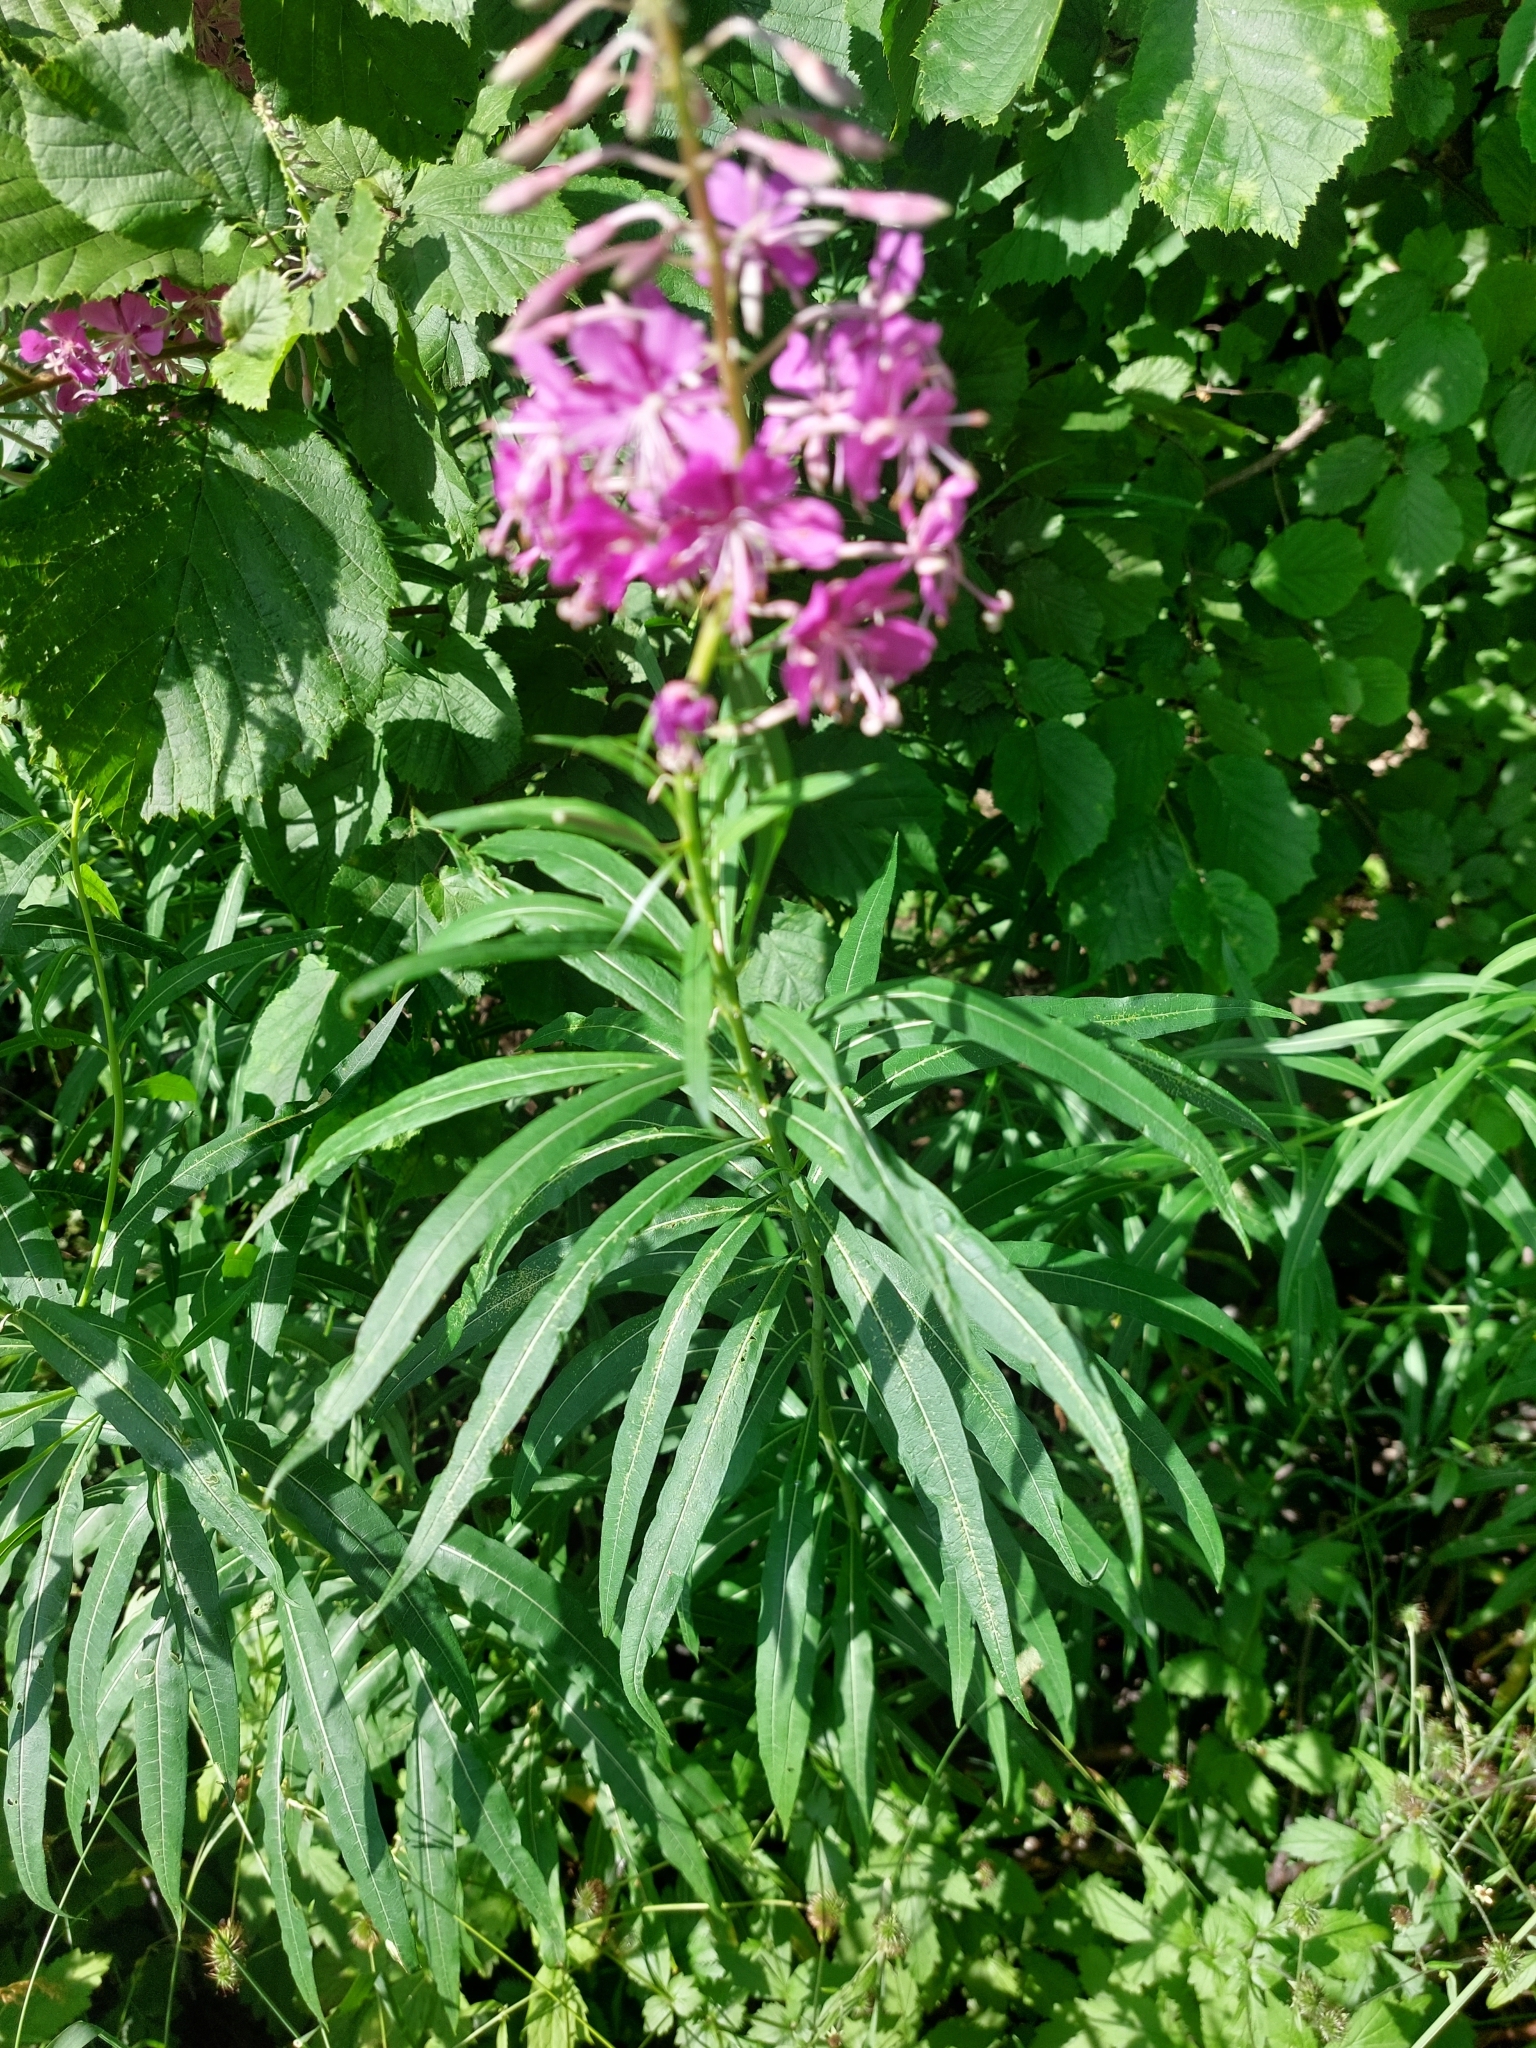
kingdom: Plantae
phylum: Tracheophyta
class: Magnoliopsida
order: Myrtales
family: Onagraceae
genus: Chamaenerion
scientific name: Chamaenerion angustifolium
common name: Fireweed
